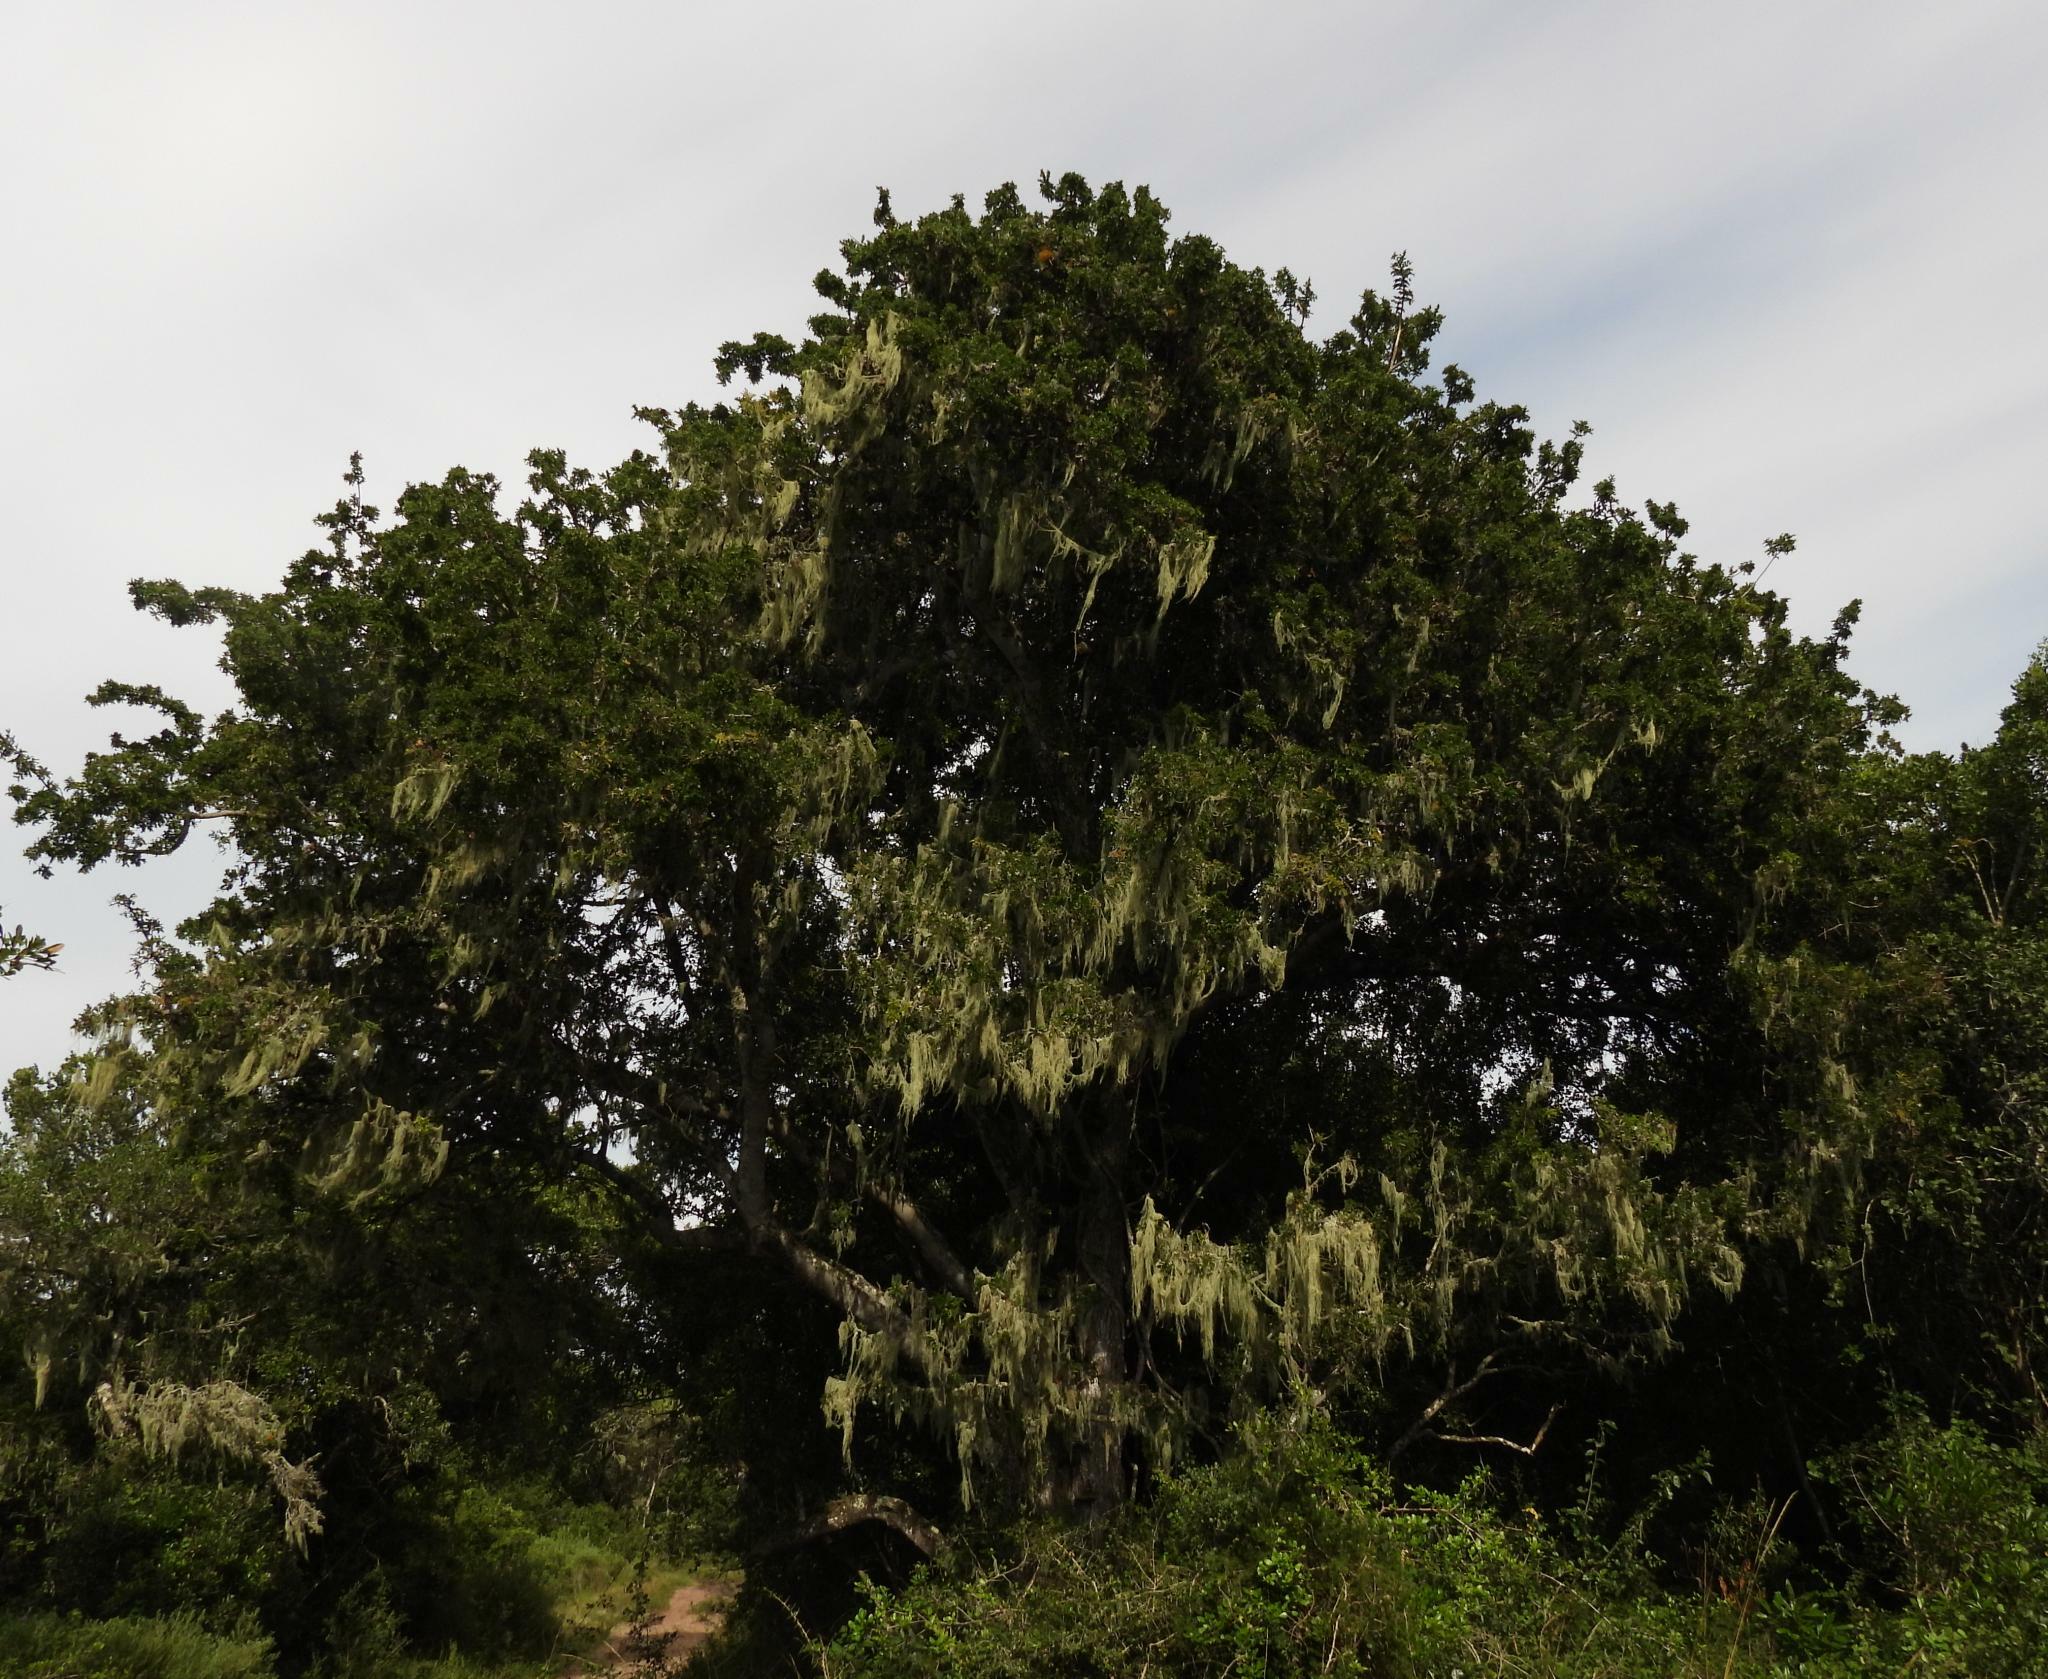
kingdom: Plantae
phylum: Tracheophyta
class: Magnoliopsida
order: Fabales
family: Fabaceae
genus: Schotia
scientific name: Schotia afra
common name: Hottentot's bean
